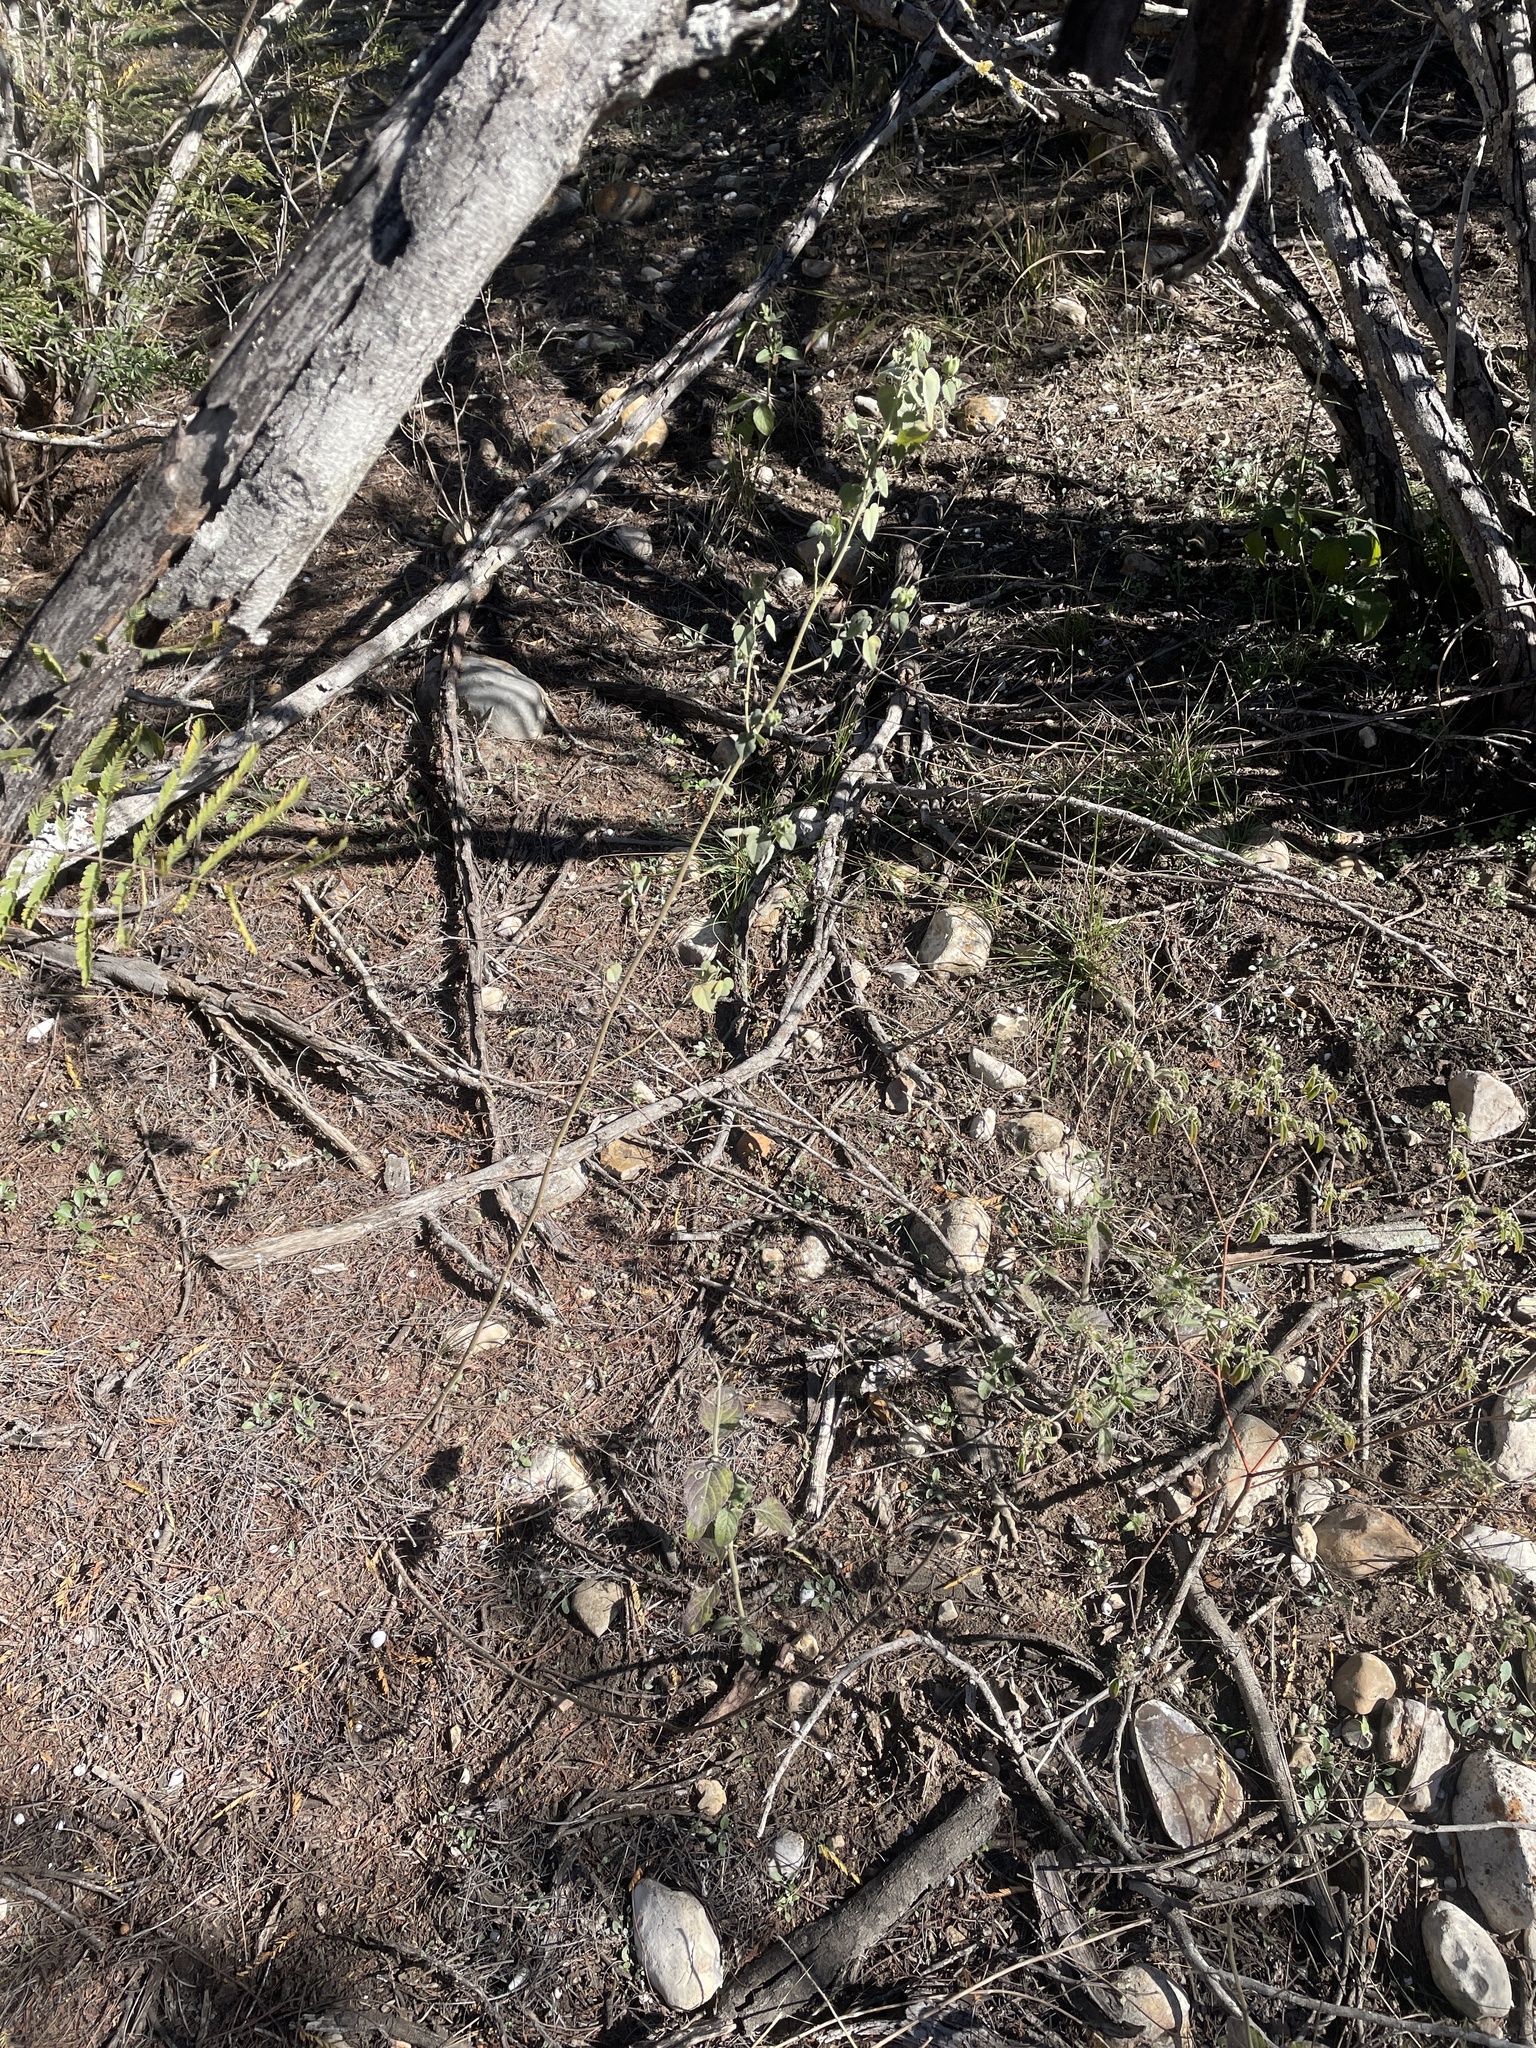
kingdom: Plantae
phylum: Tracheophyta
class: Magnoliopsida
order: Malvales
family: Malvaceae
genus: Abutilon
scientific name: Abutilon fruticosum
